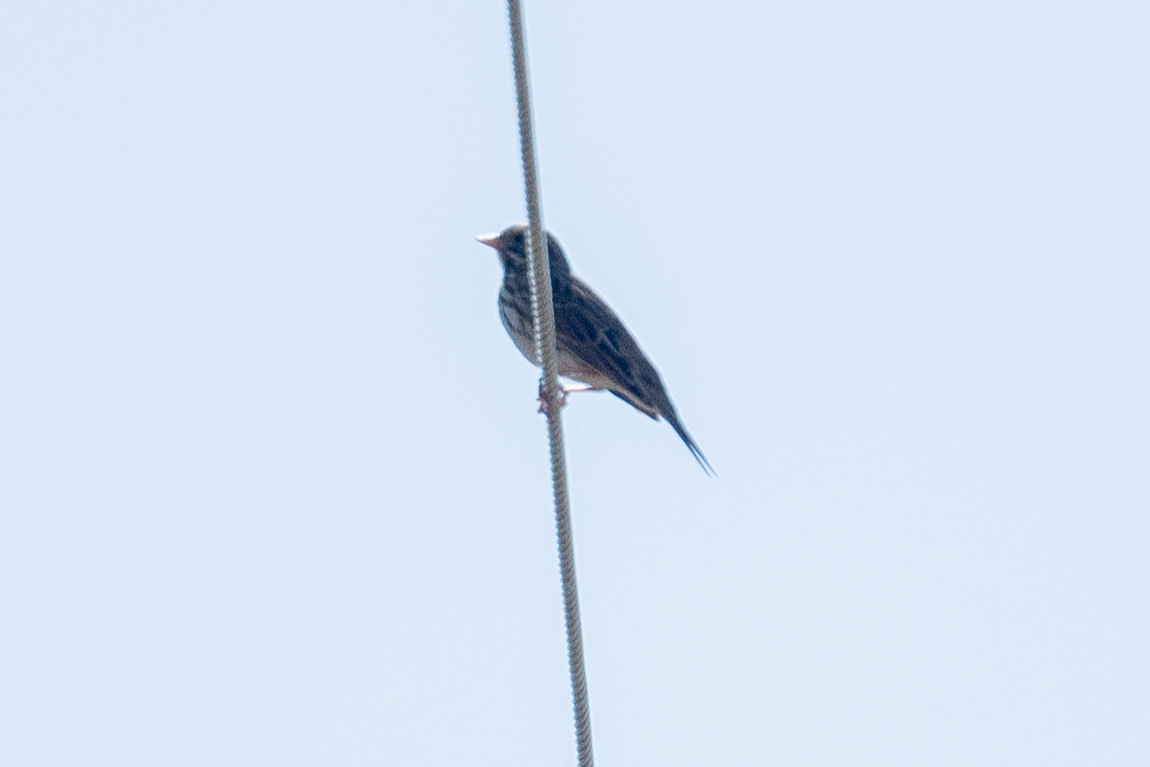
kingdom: Animalia
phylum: Chordata
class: Aves
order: Passeriformes
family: Passerellidae
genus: Passerculus
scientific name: Passerculus sandwichensis
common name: Savannah sparrow
